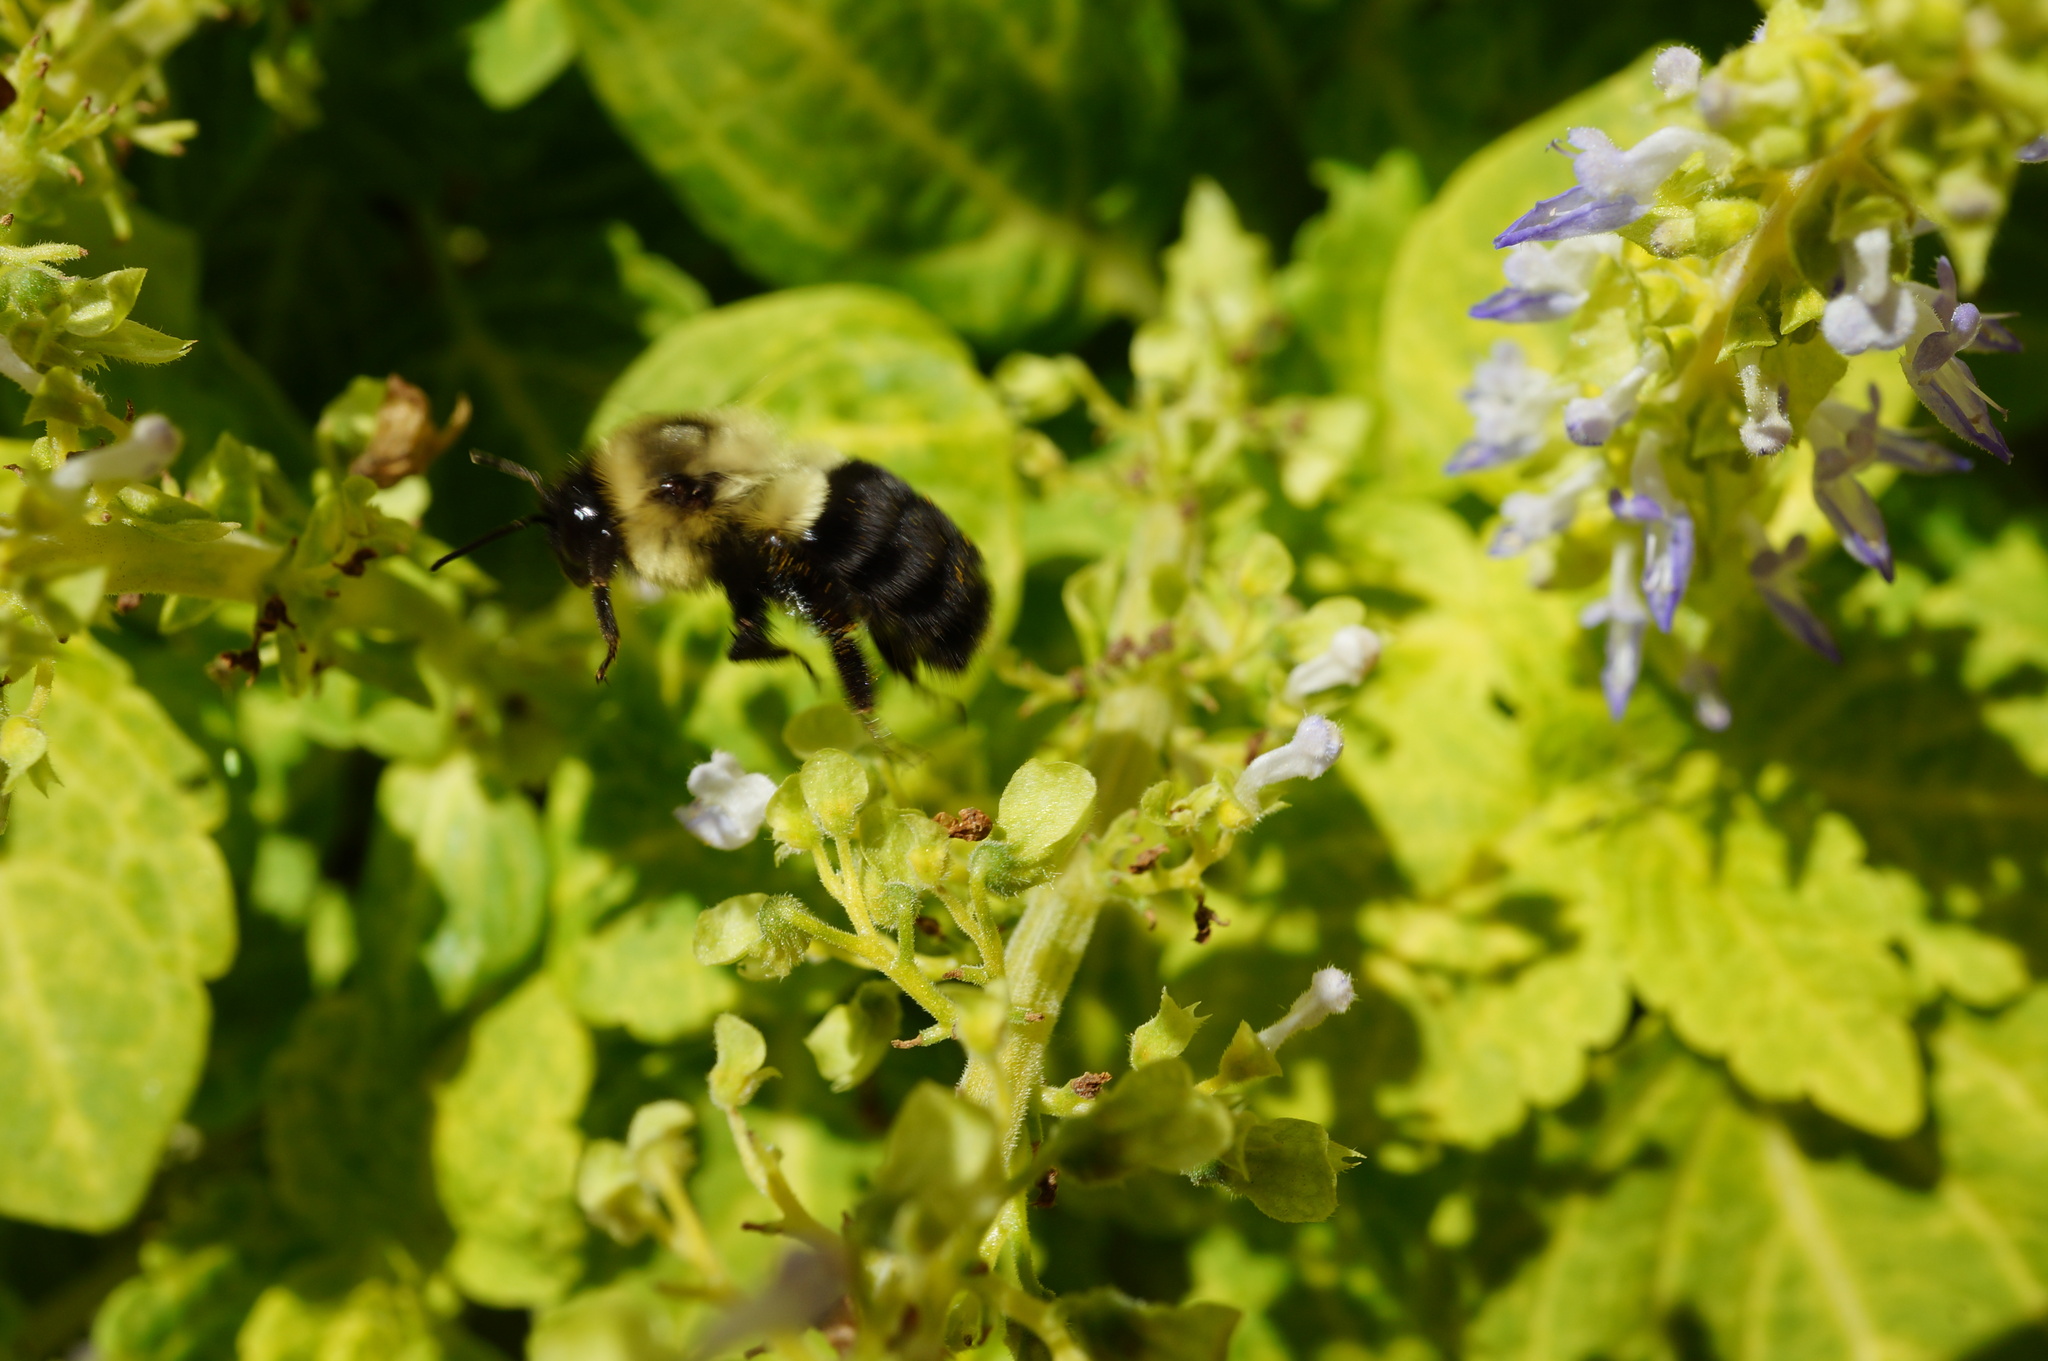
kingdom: Animalia
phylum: Arthropoda
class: Insecta
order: Hymenoptera
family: Apidae
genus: Bombus
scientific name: Bombus impatiens
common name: Common eastern bumble bee
